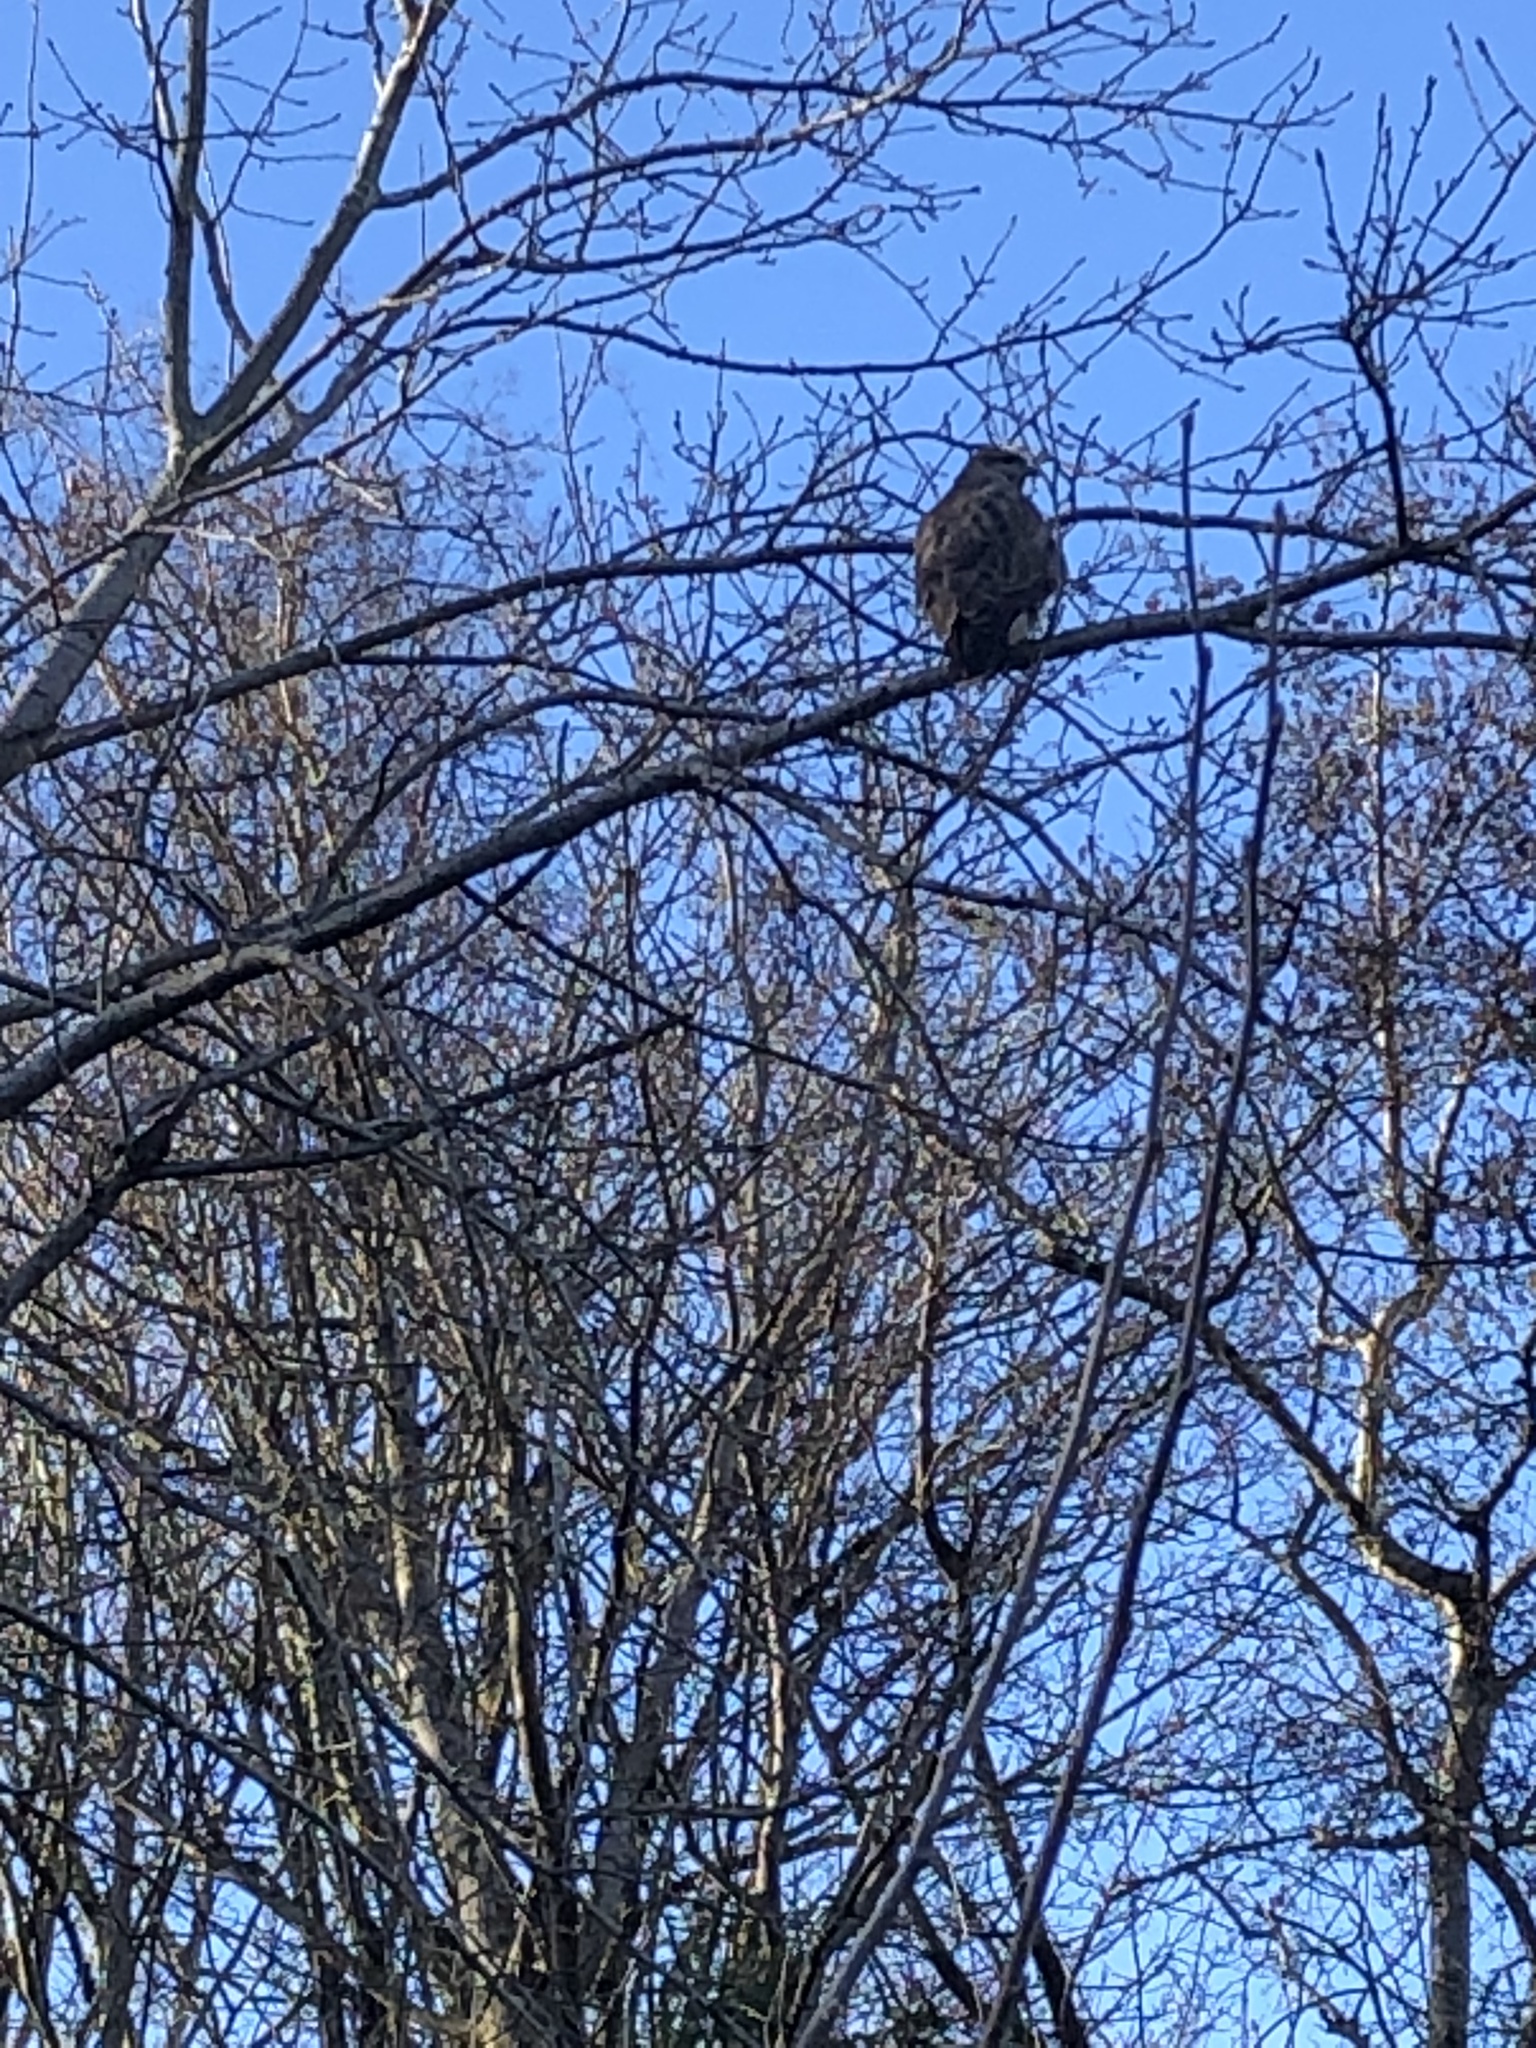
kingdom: Animalia
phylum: Chordata
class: Aves
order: Accipitriformes
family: Accipitridae
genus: Buteo
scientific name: Buteo buteo
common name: Common buzzard
